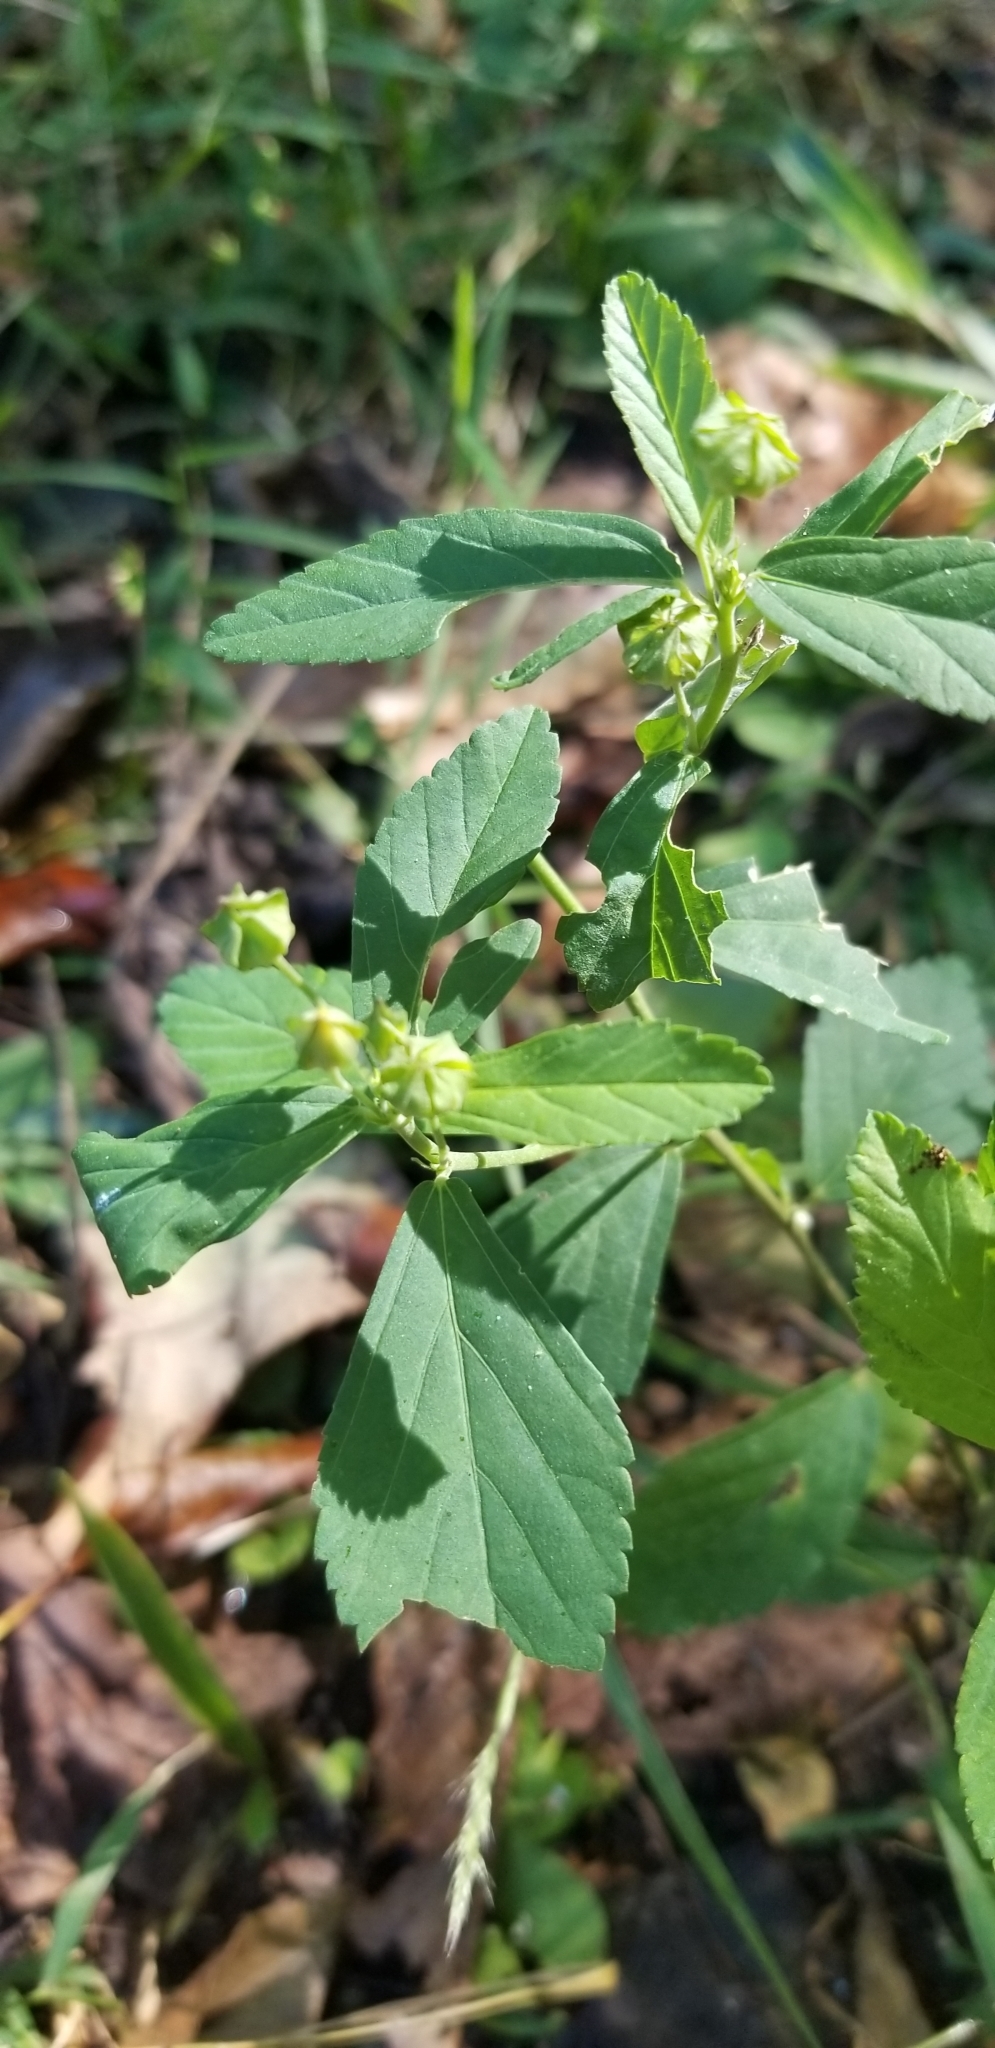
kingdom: Plantae
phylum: Tracheophyta
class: Magnoliopsida
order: Malvales
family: Malvaceae
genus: Sida
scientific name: Sida rhombifolia
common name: Queensland-hemp
